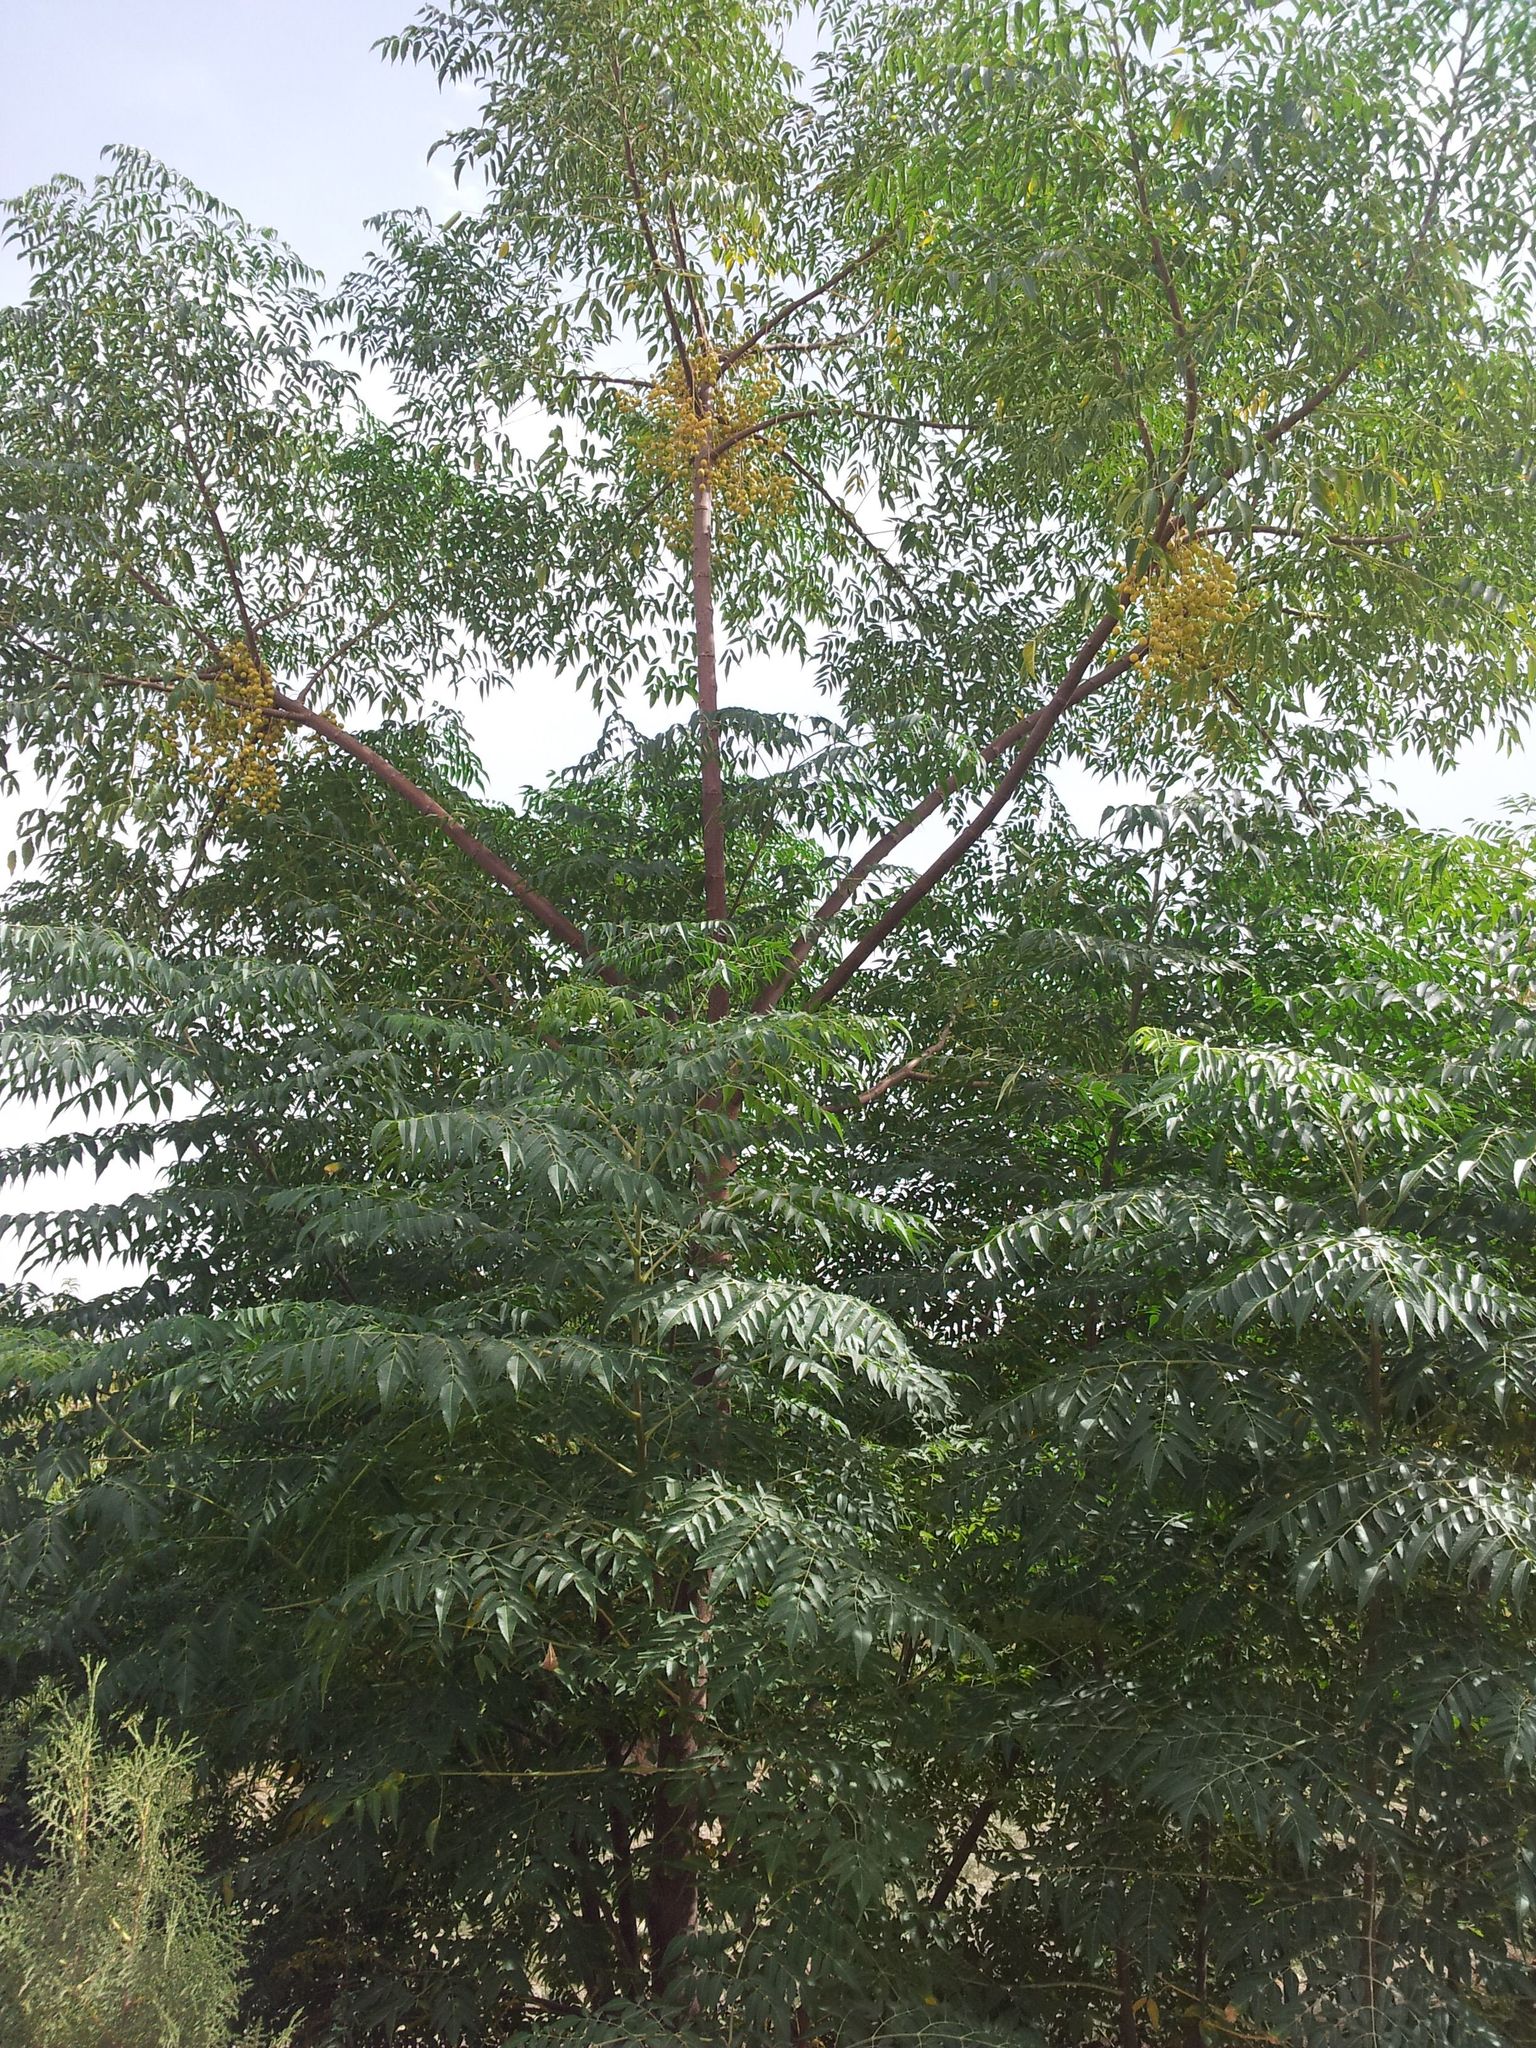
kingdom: Plantae
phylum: Tracheophyta
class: Magnoliopsida
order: Sapindales
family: Meliaceae
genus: Melia
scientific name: Melia azedarach
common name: Chinaberrytree
